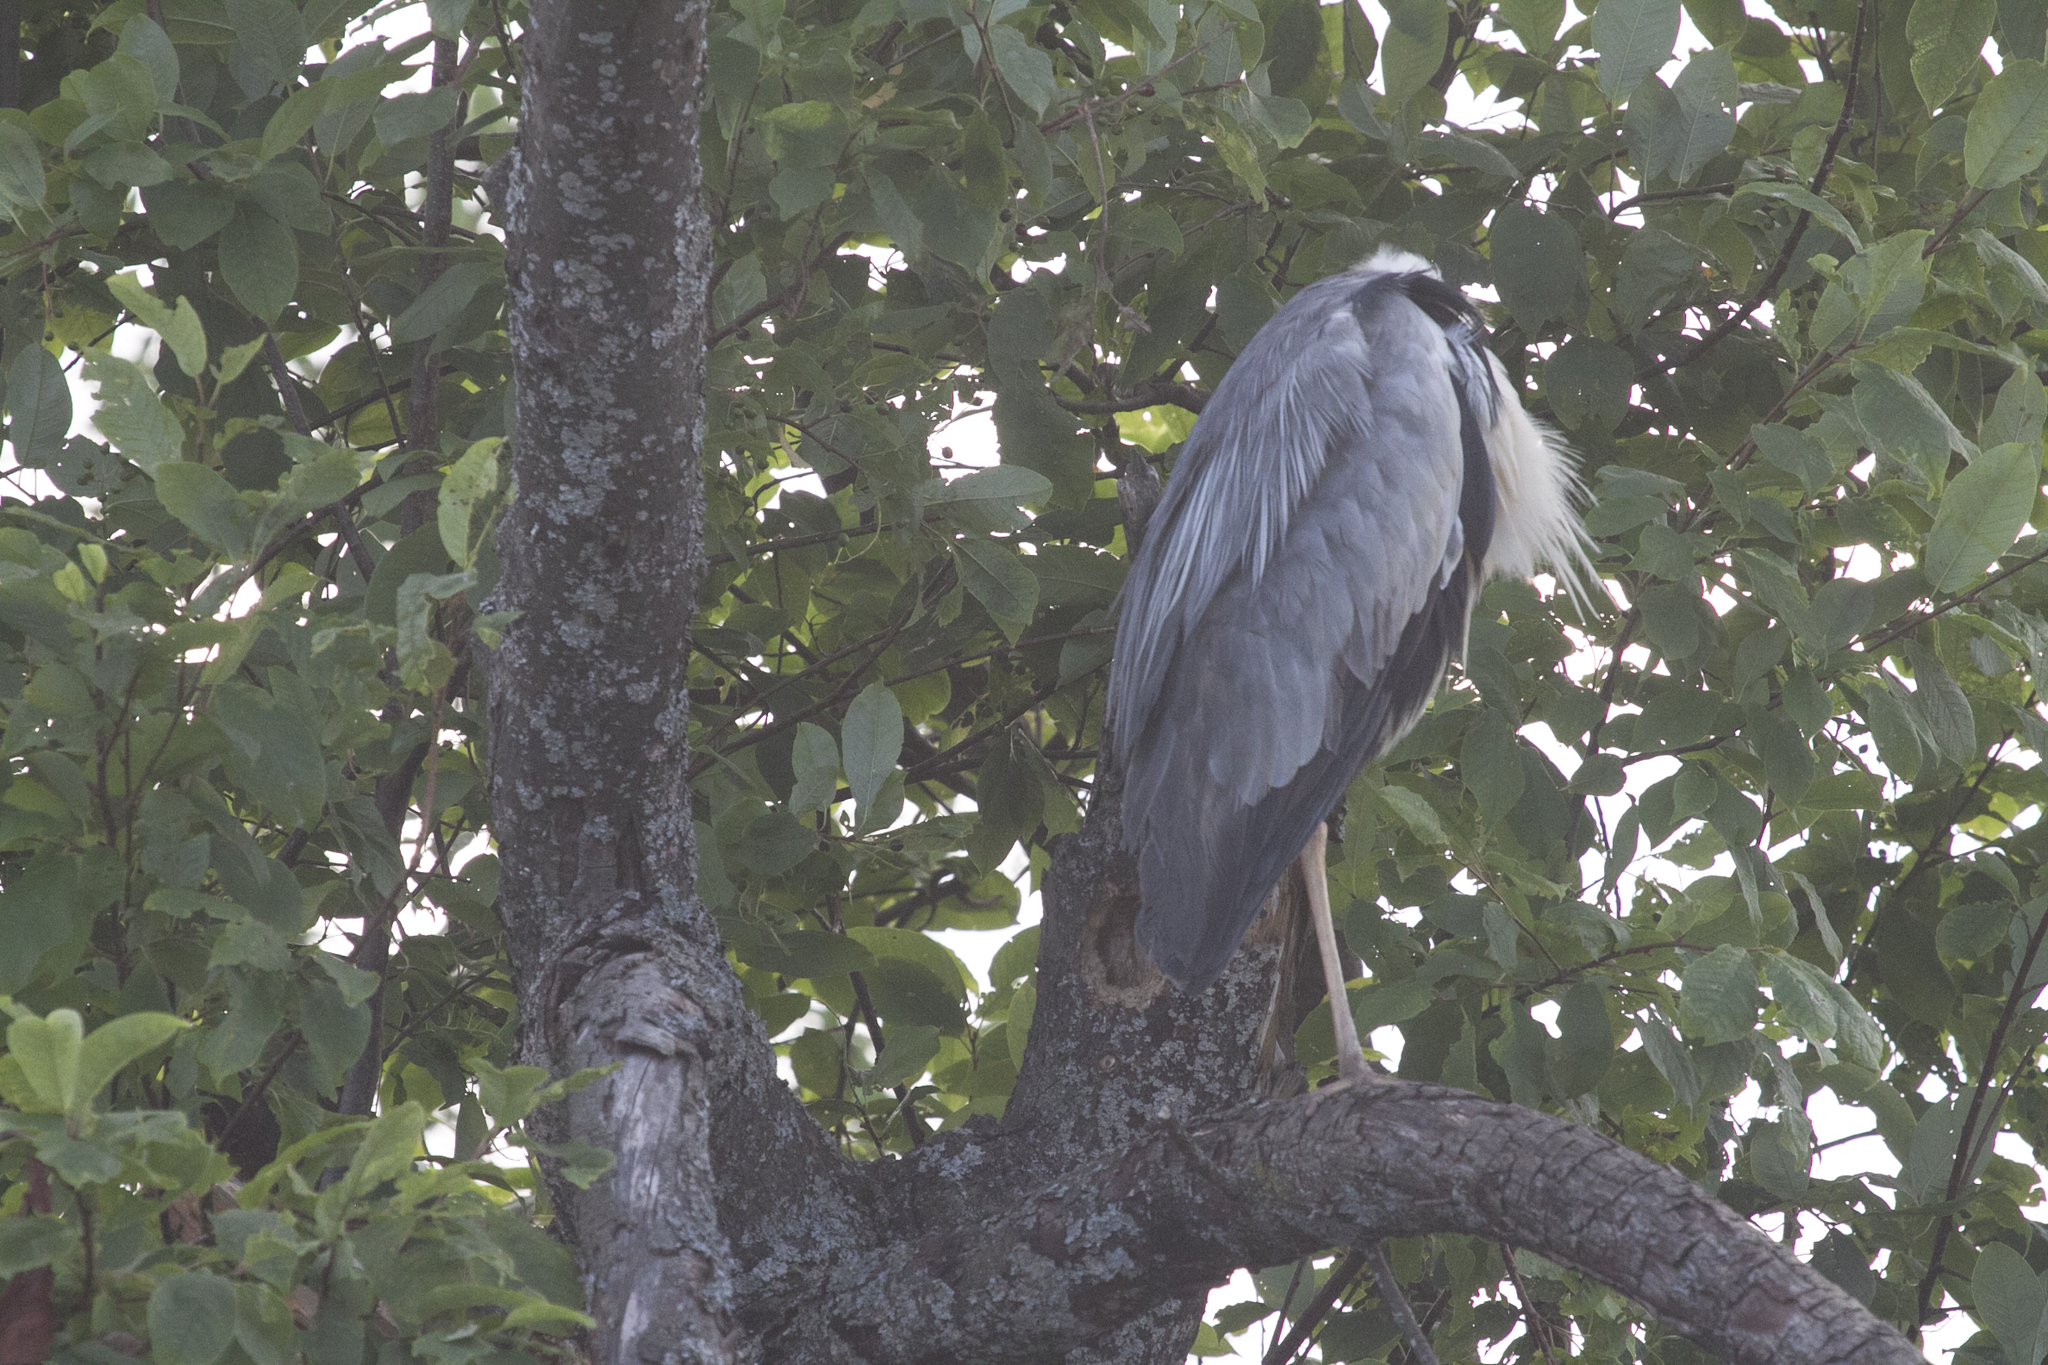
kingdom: Animalia
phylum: Chordata
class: Aves
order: Pelecaniformes
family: Ardeidae
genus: Ardea
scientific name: Ardea cinerea
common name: Grey heron
